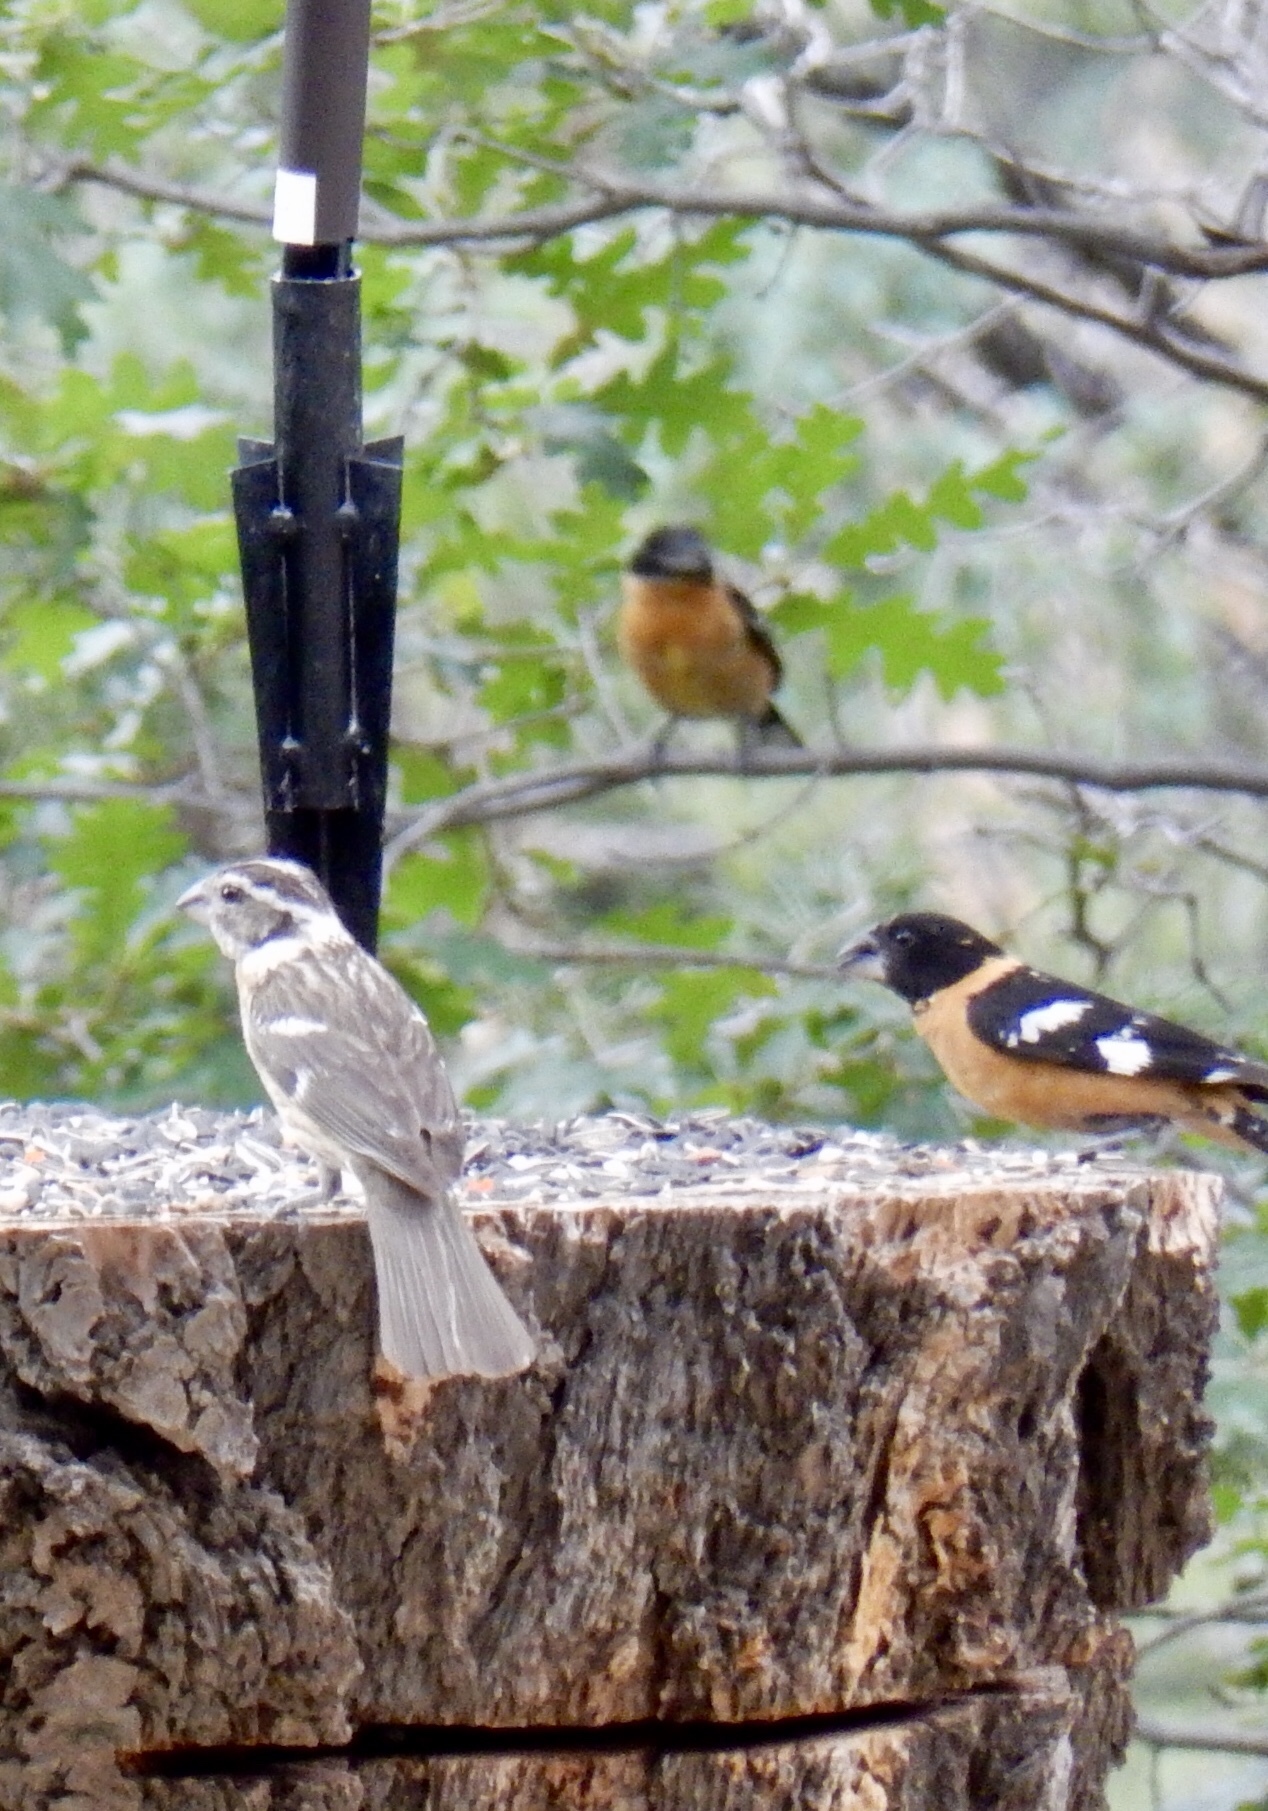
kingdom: Animalia
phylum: Chordata
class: Aves
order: Passeriformes
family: Cardinalidae
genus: Pheucticus
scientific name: Pheucticus melanocephalus
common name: Black-headed grosbeak
